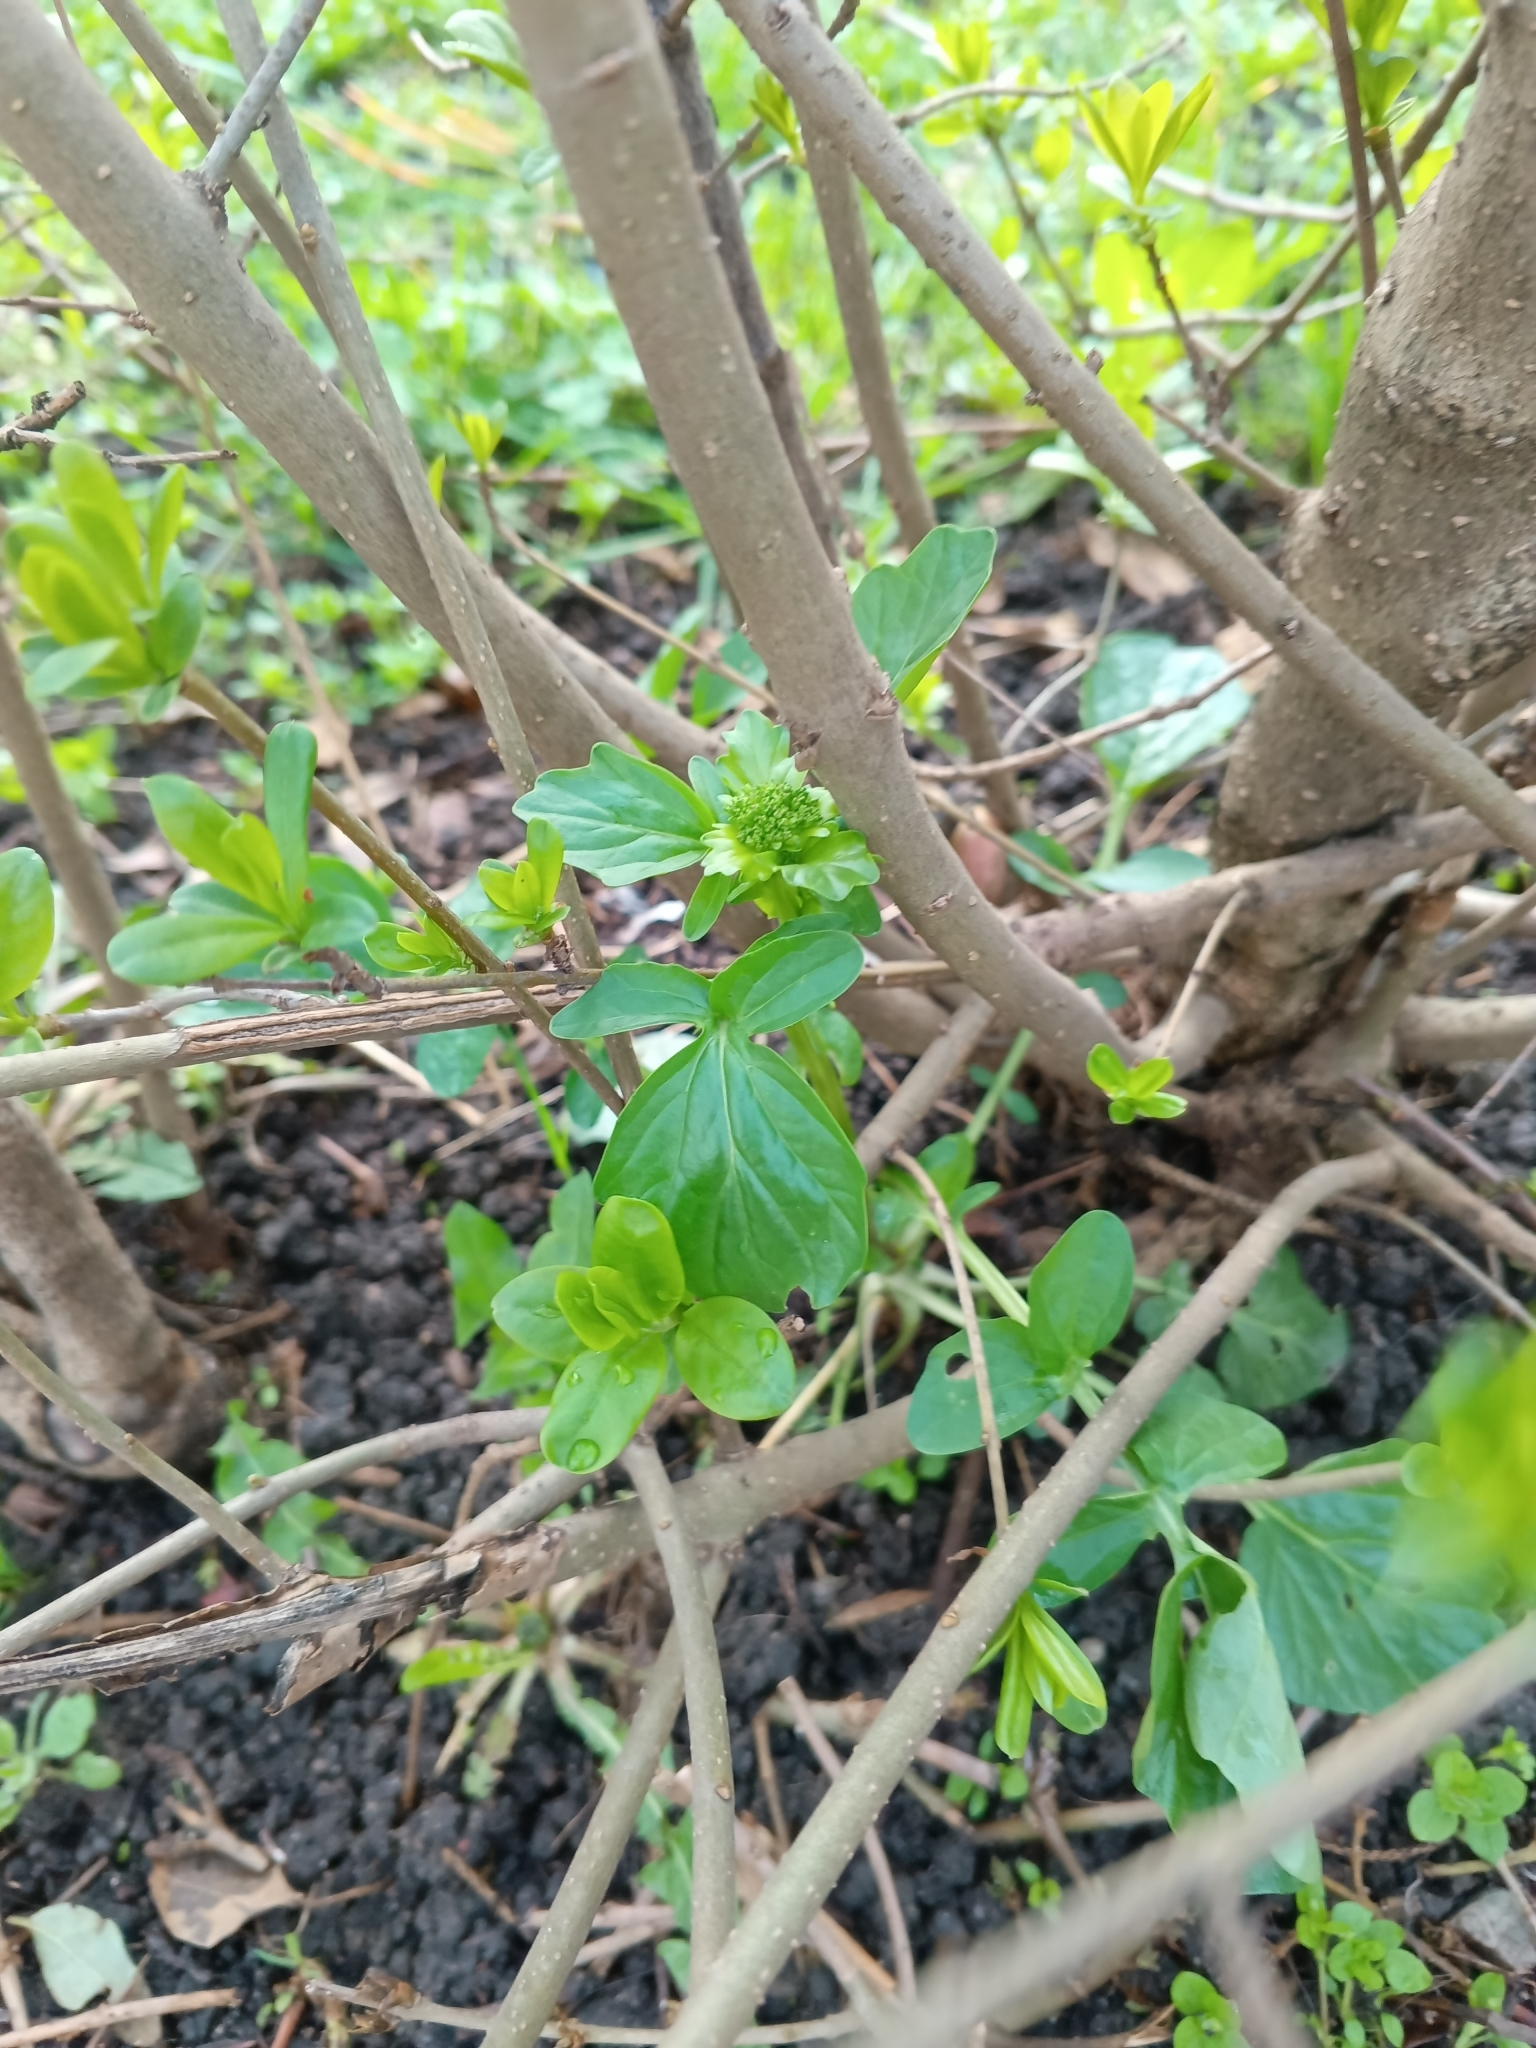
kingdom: Plantae
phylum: Tracheophyta
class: Magnoliopsida
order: Brassicales
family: Brassicaceae
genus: Barbarea
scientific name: Barbarea vulgaris
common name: Cressy-greens
